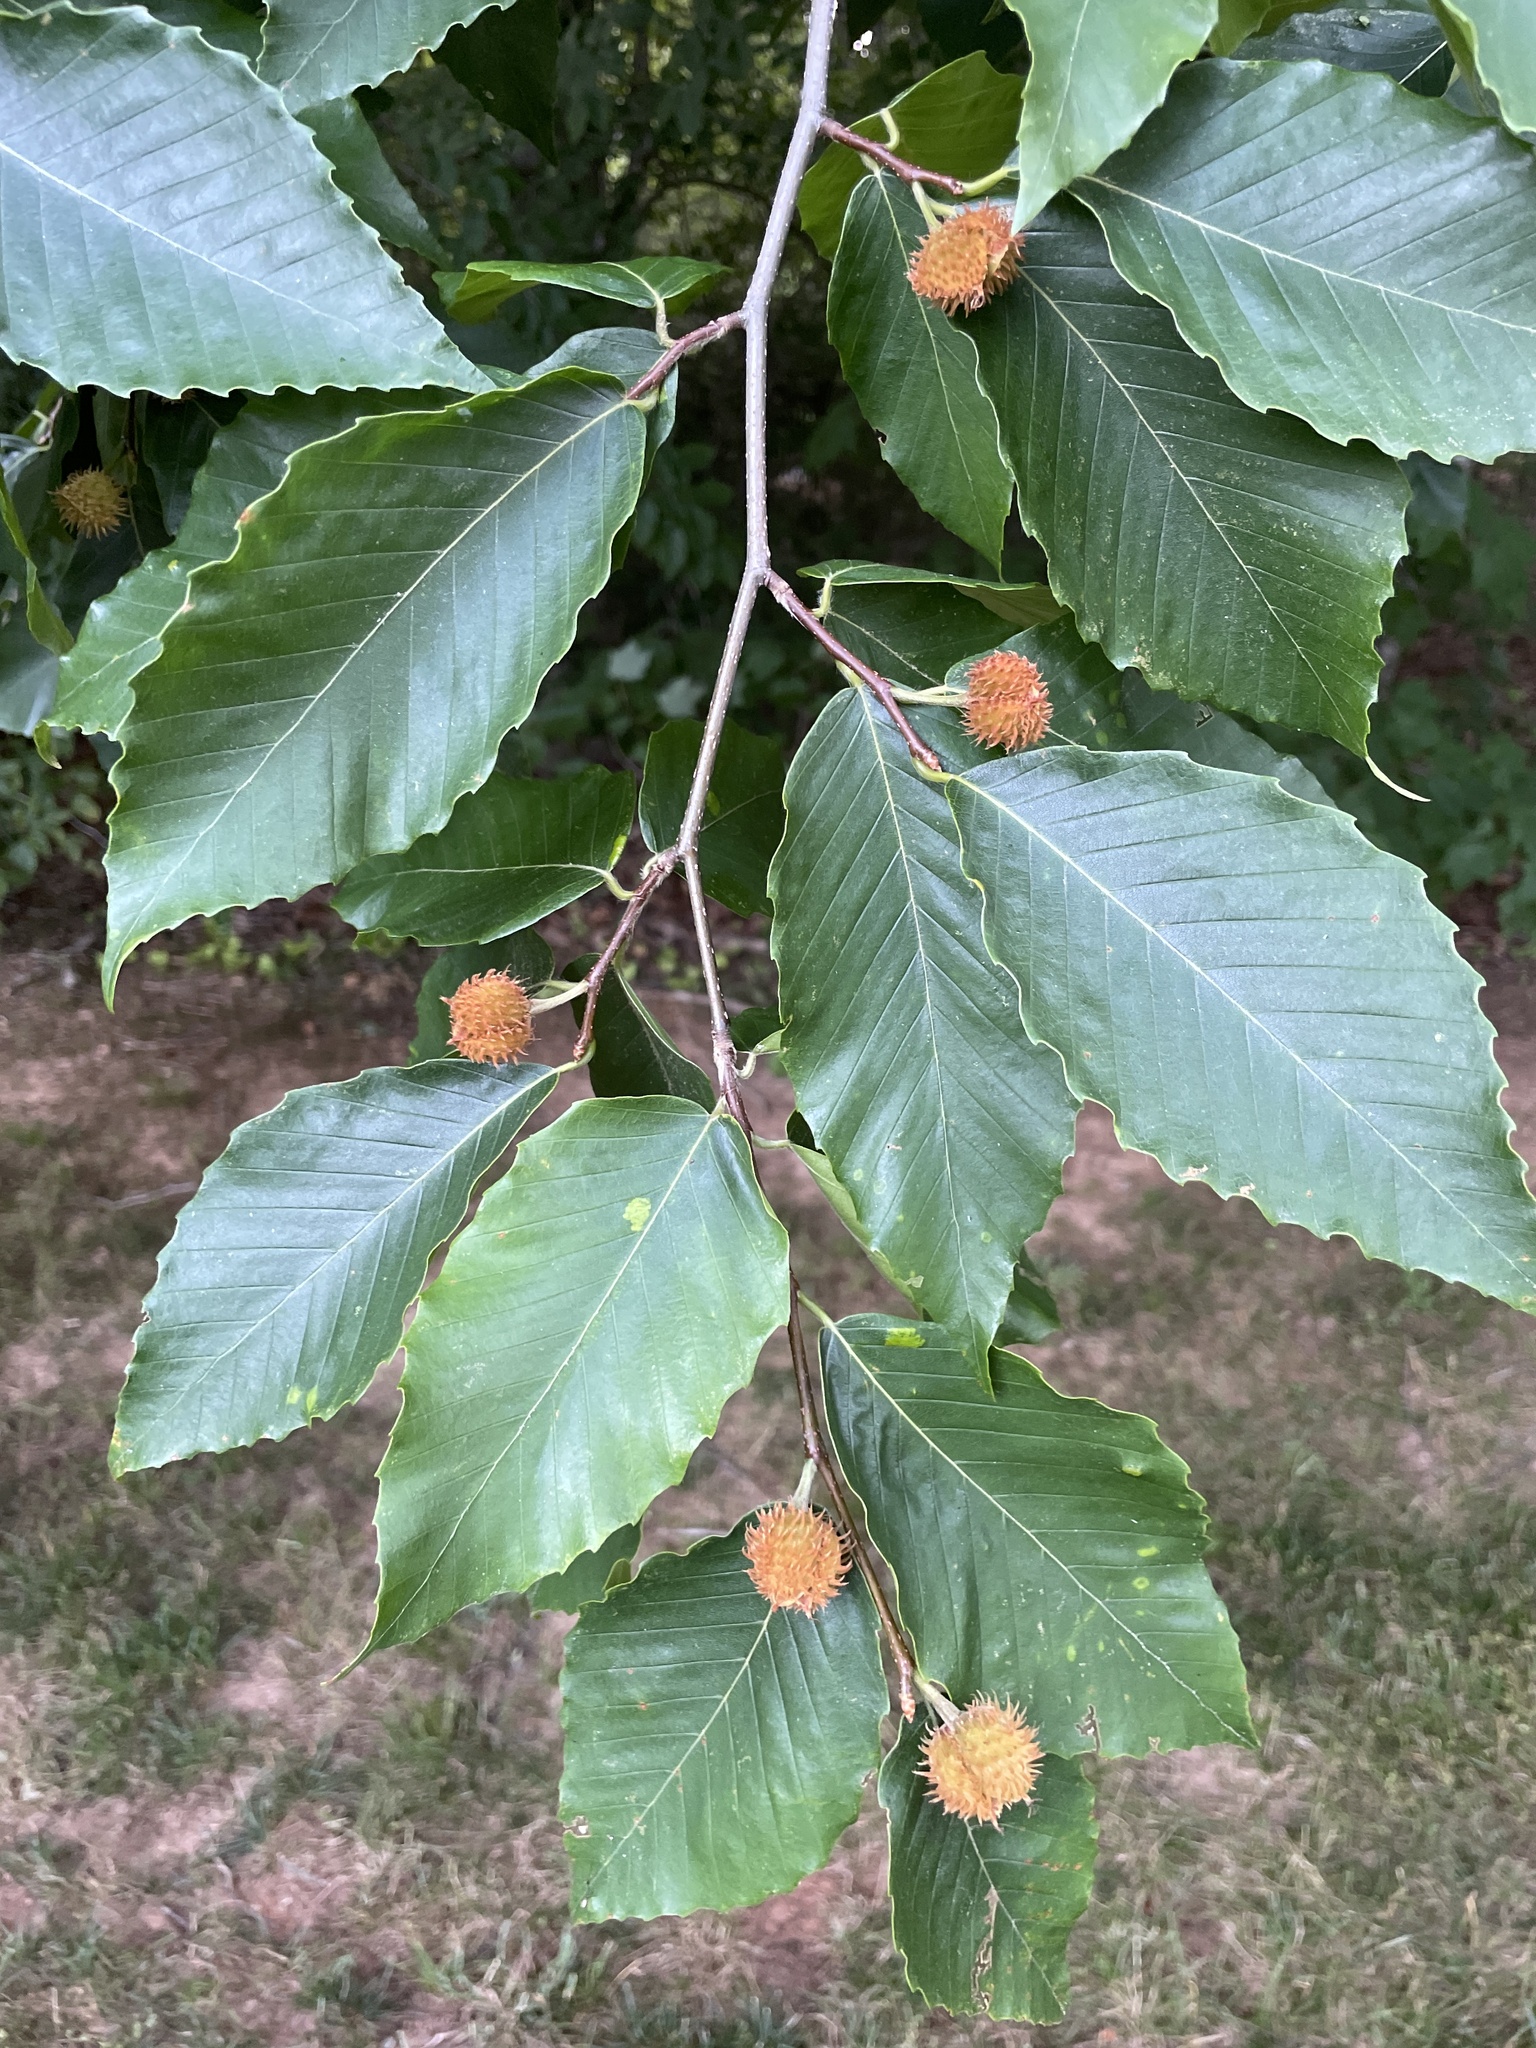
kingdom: Plantae
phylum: Tracheophyta
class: Magnoliopsida
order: Fagales
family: Fagaceae
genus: Fagus
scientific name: Fagus grandifolia
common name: American beech
